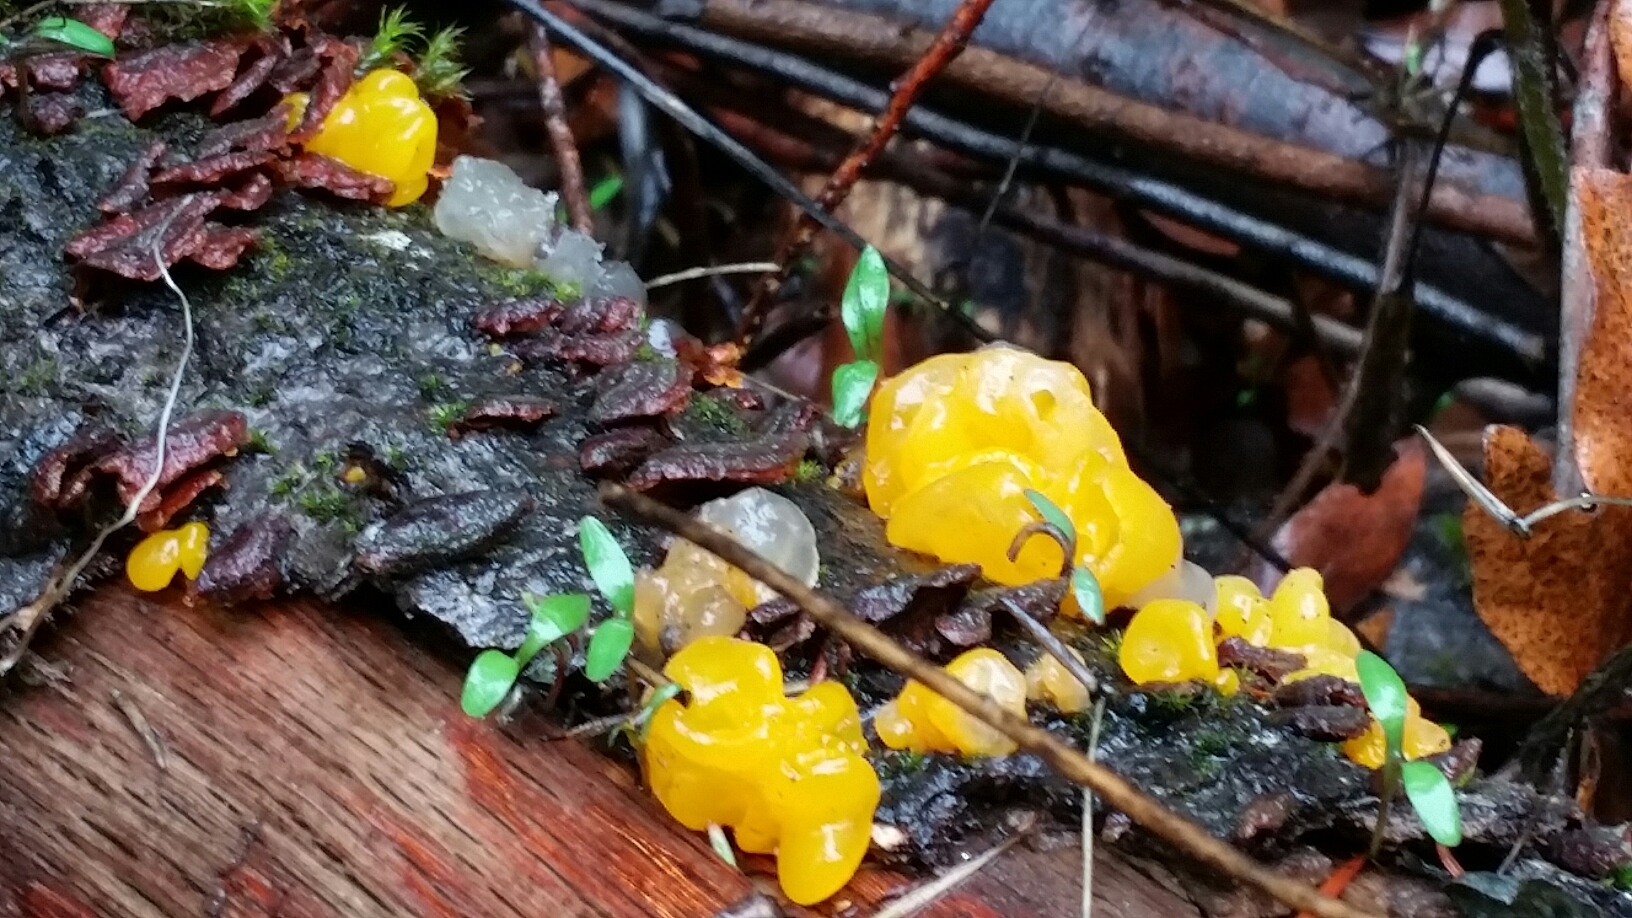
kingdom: Fungi
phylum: Basidiomycota
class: Tremellomycetes
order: Tremellales
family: Naemateliaceae
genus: Naematelia
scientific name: Naematelia aurantia
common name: Golden ear
